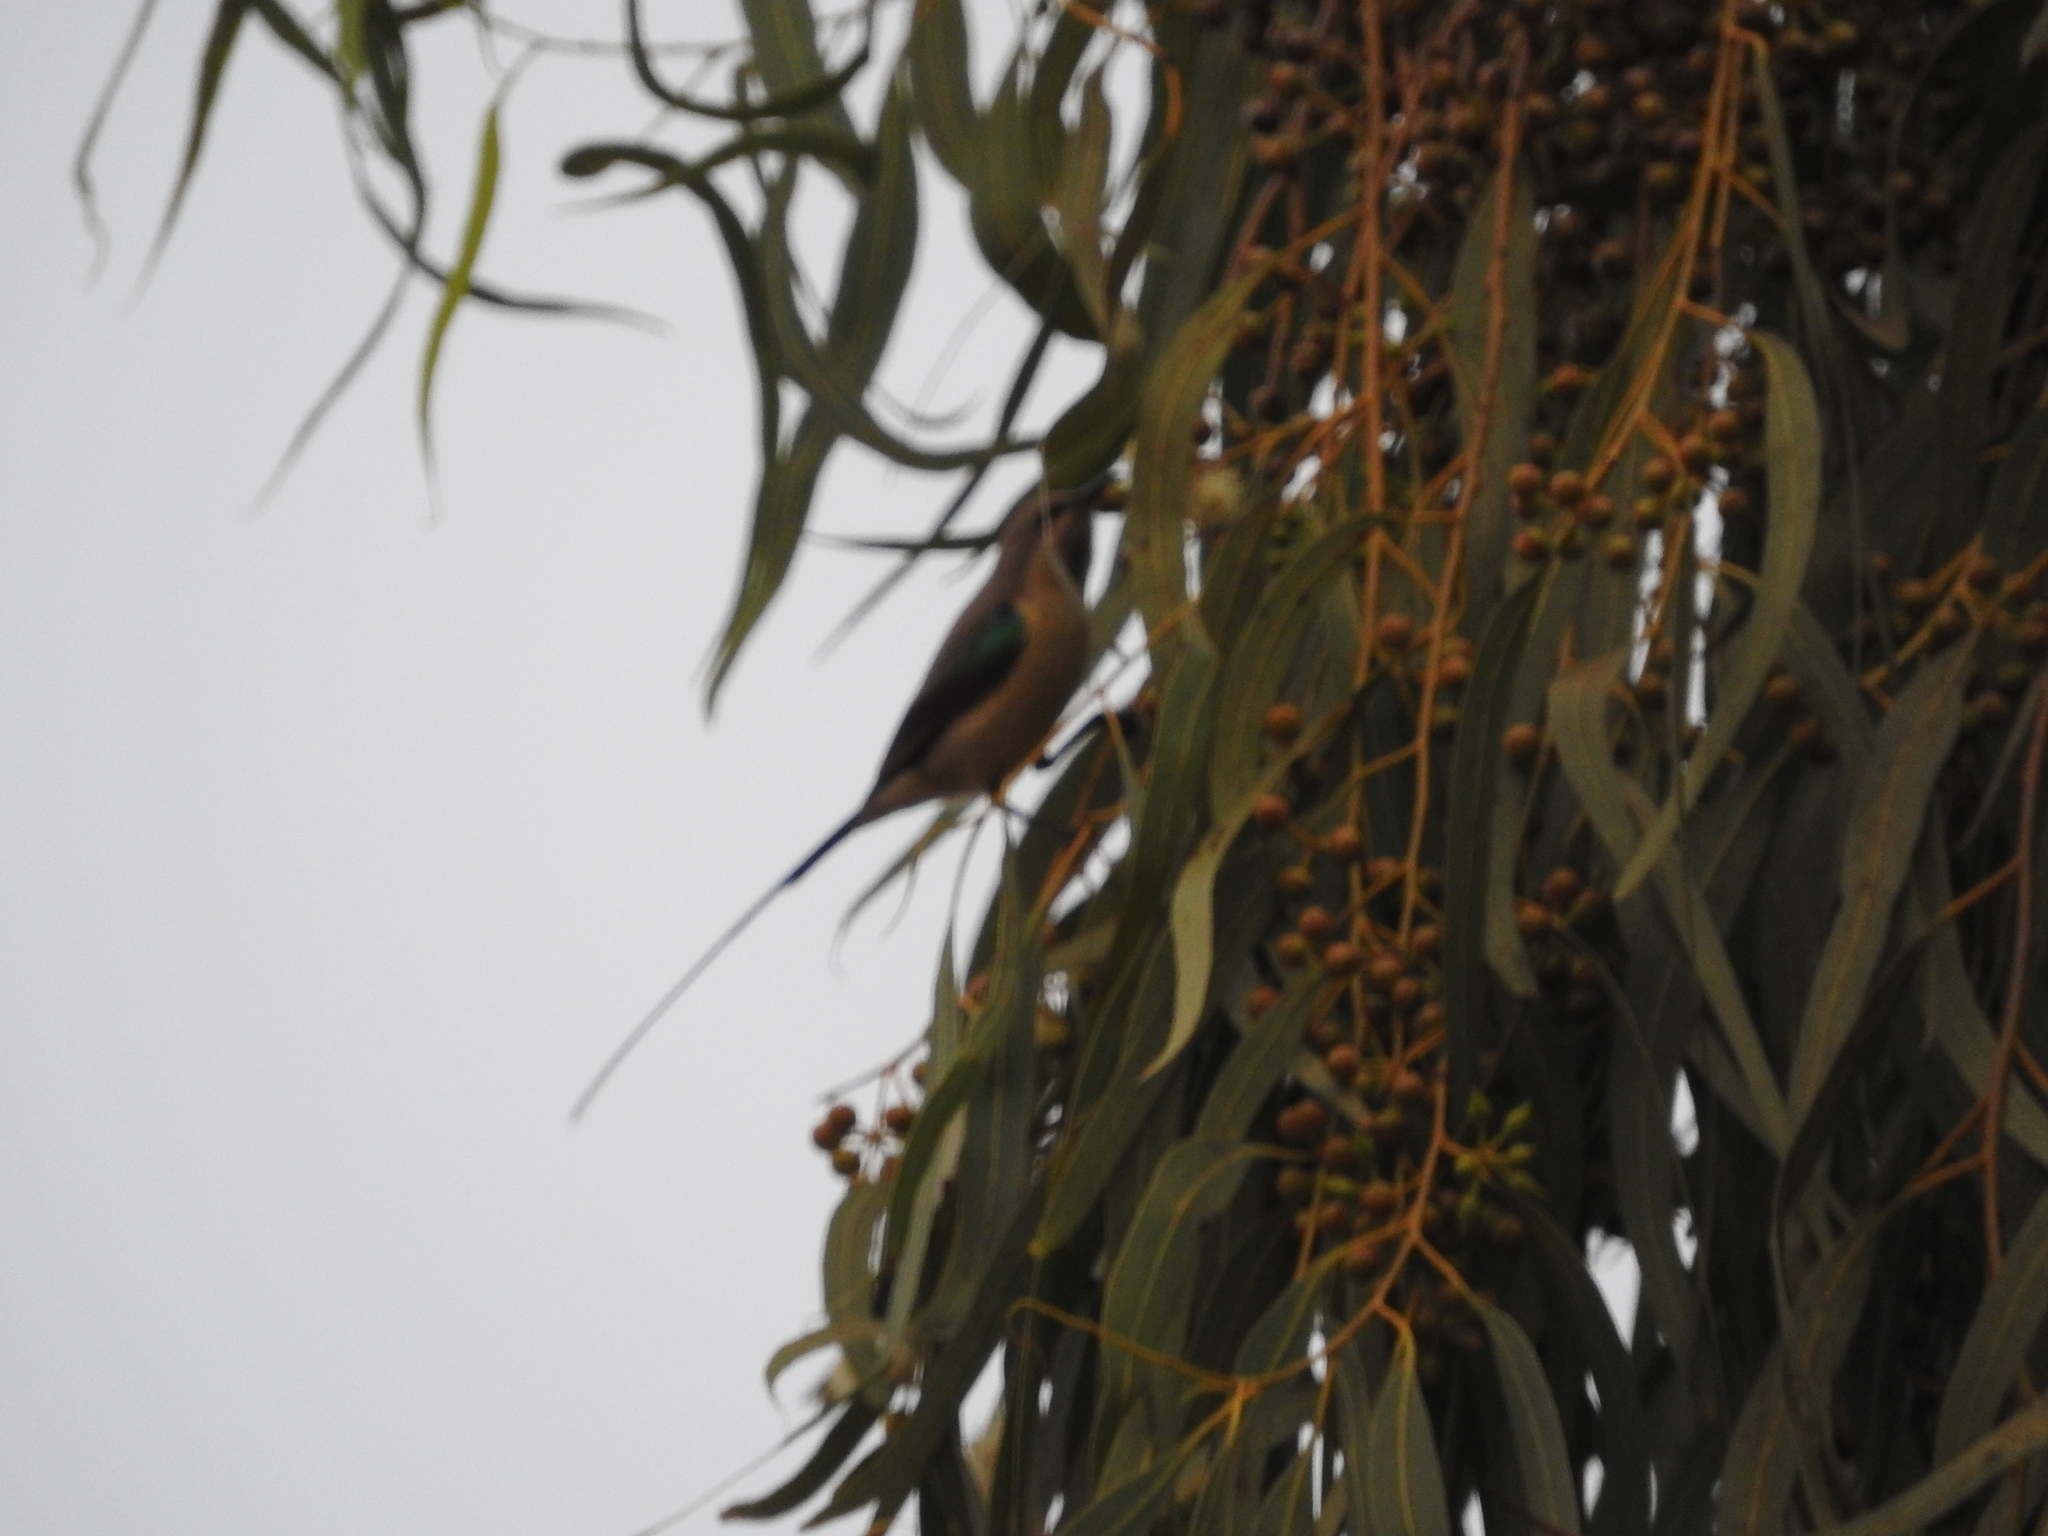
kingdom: Animalia
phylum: Chordata
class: Aves
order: Passeriformes
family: Nectariniidae
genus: Hedydipna
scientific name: Hedydipna platura
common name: Pygmy sunbird
